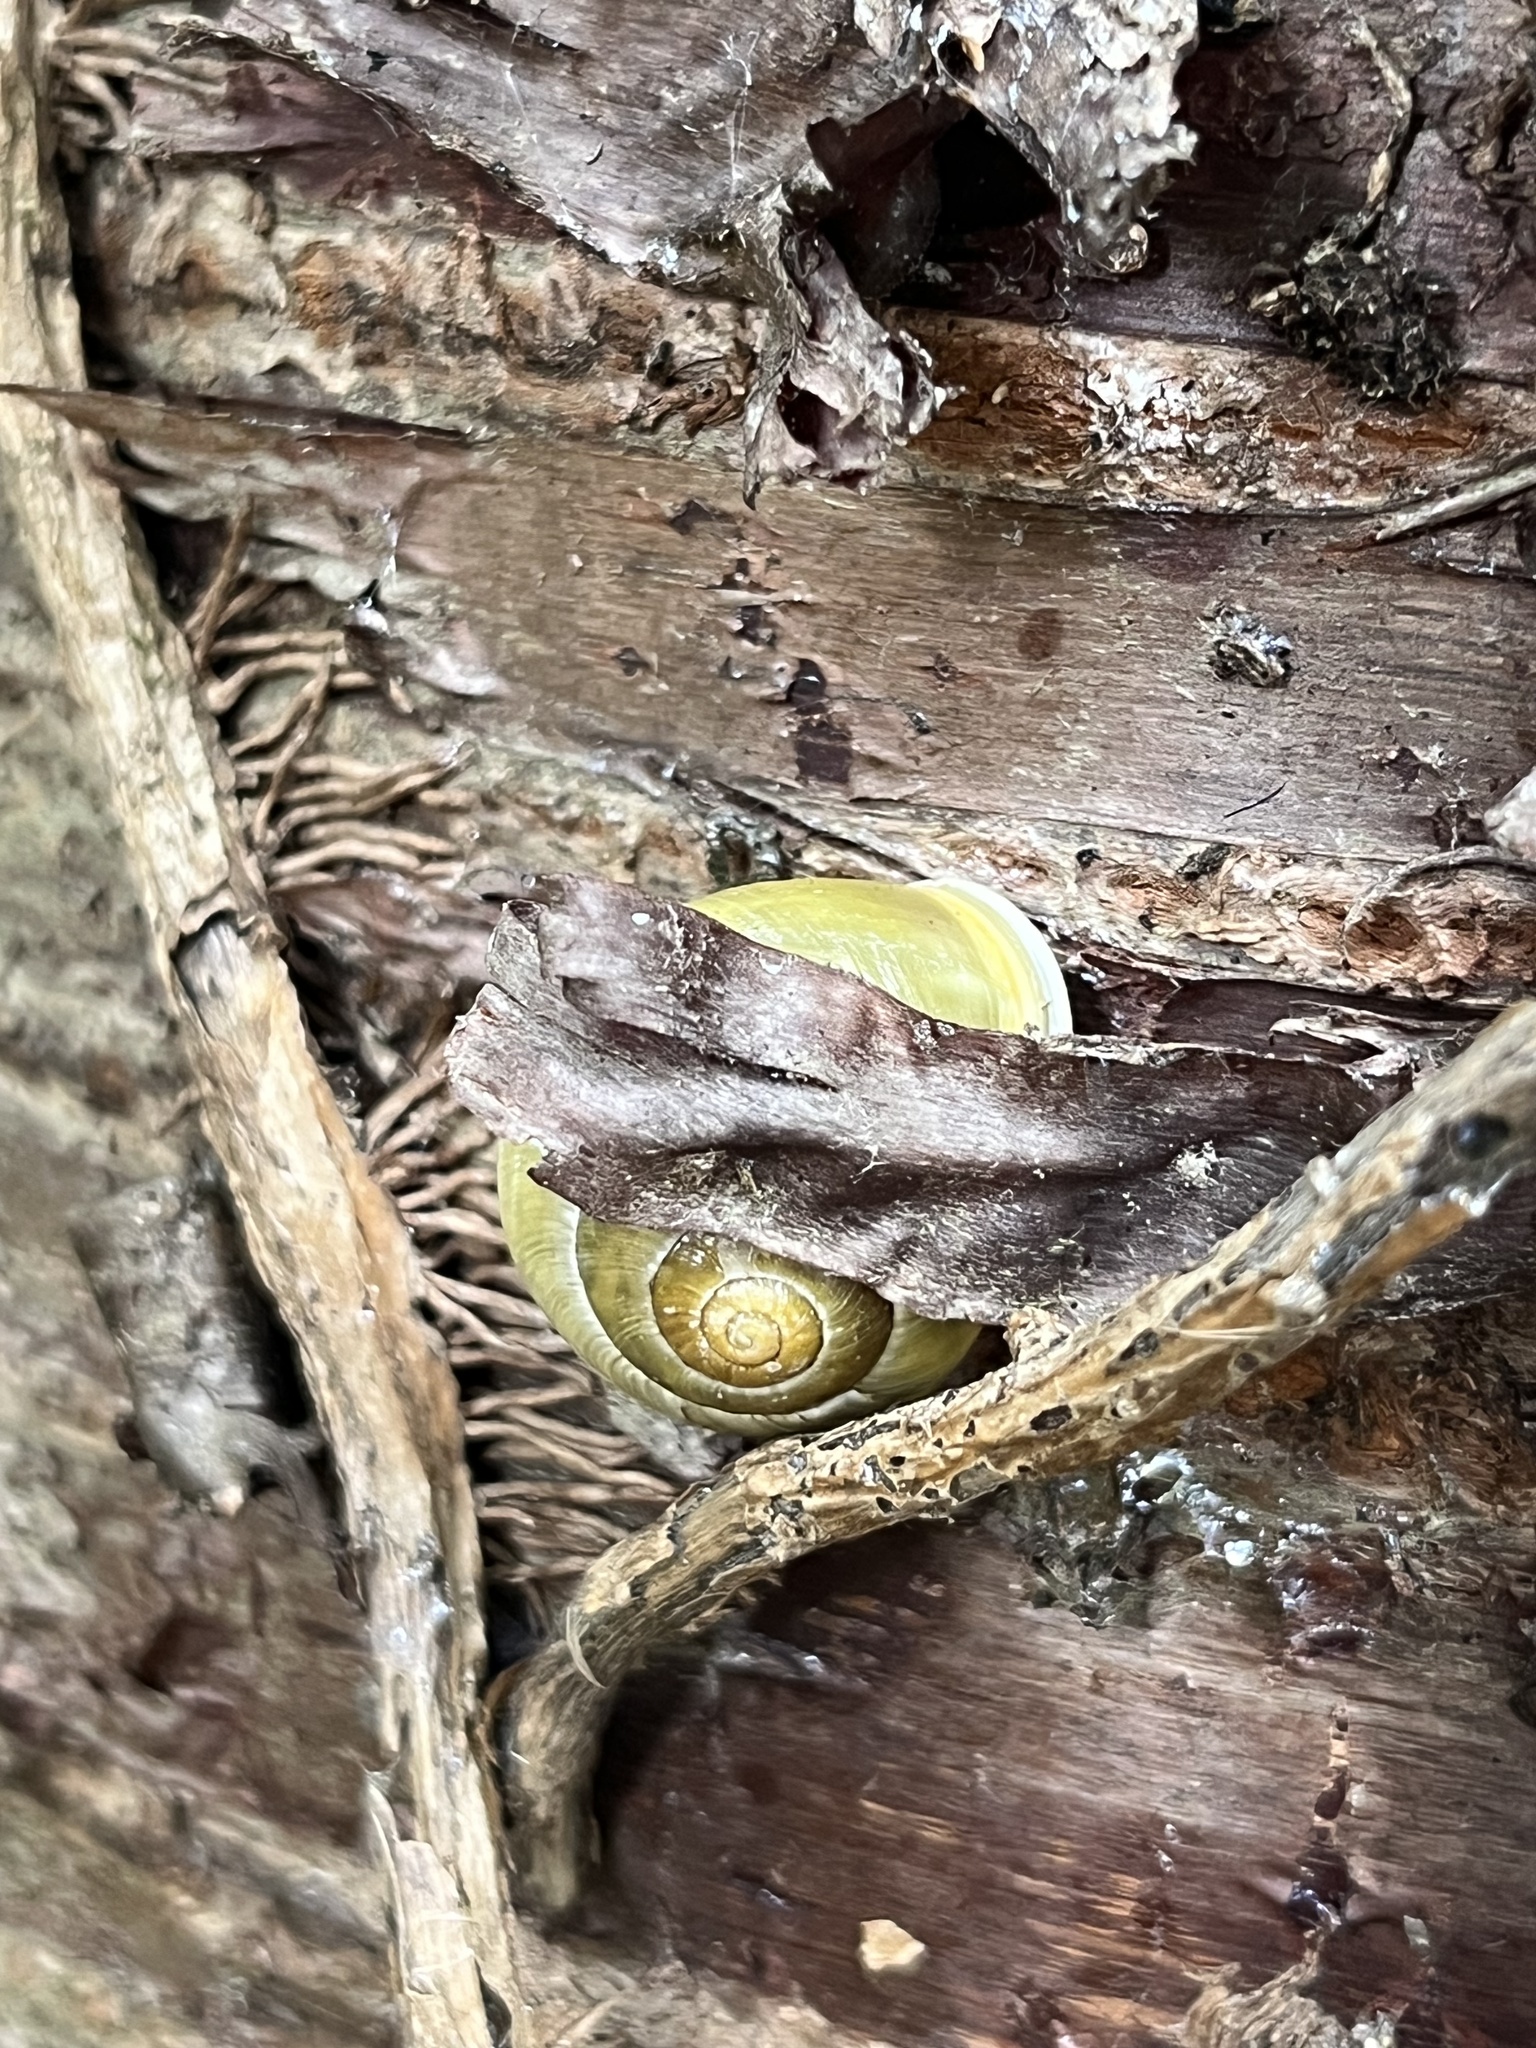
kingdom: Animalia
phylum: Mollusca
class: Gastropoda
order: Stylommatophora
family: Helicidae
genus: Cepaea
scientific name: Cepaea hortensis
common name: White-lip gardensnail
